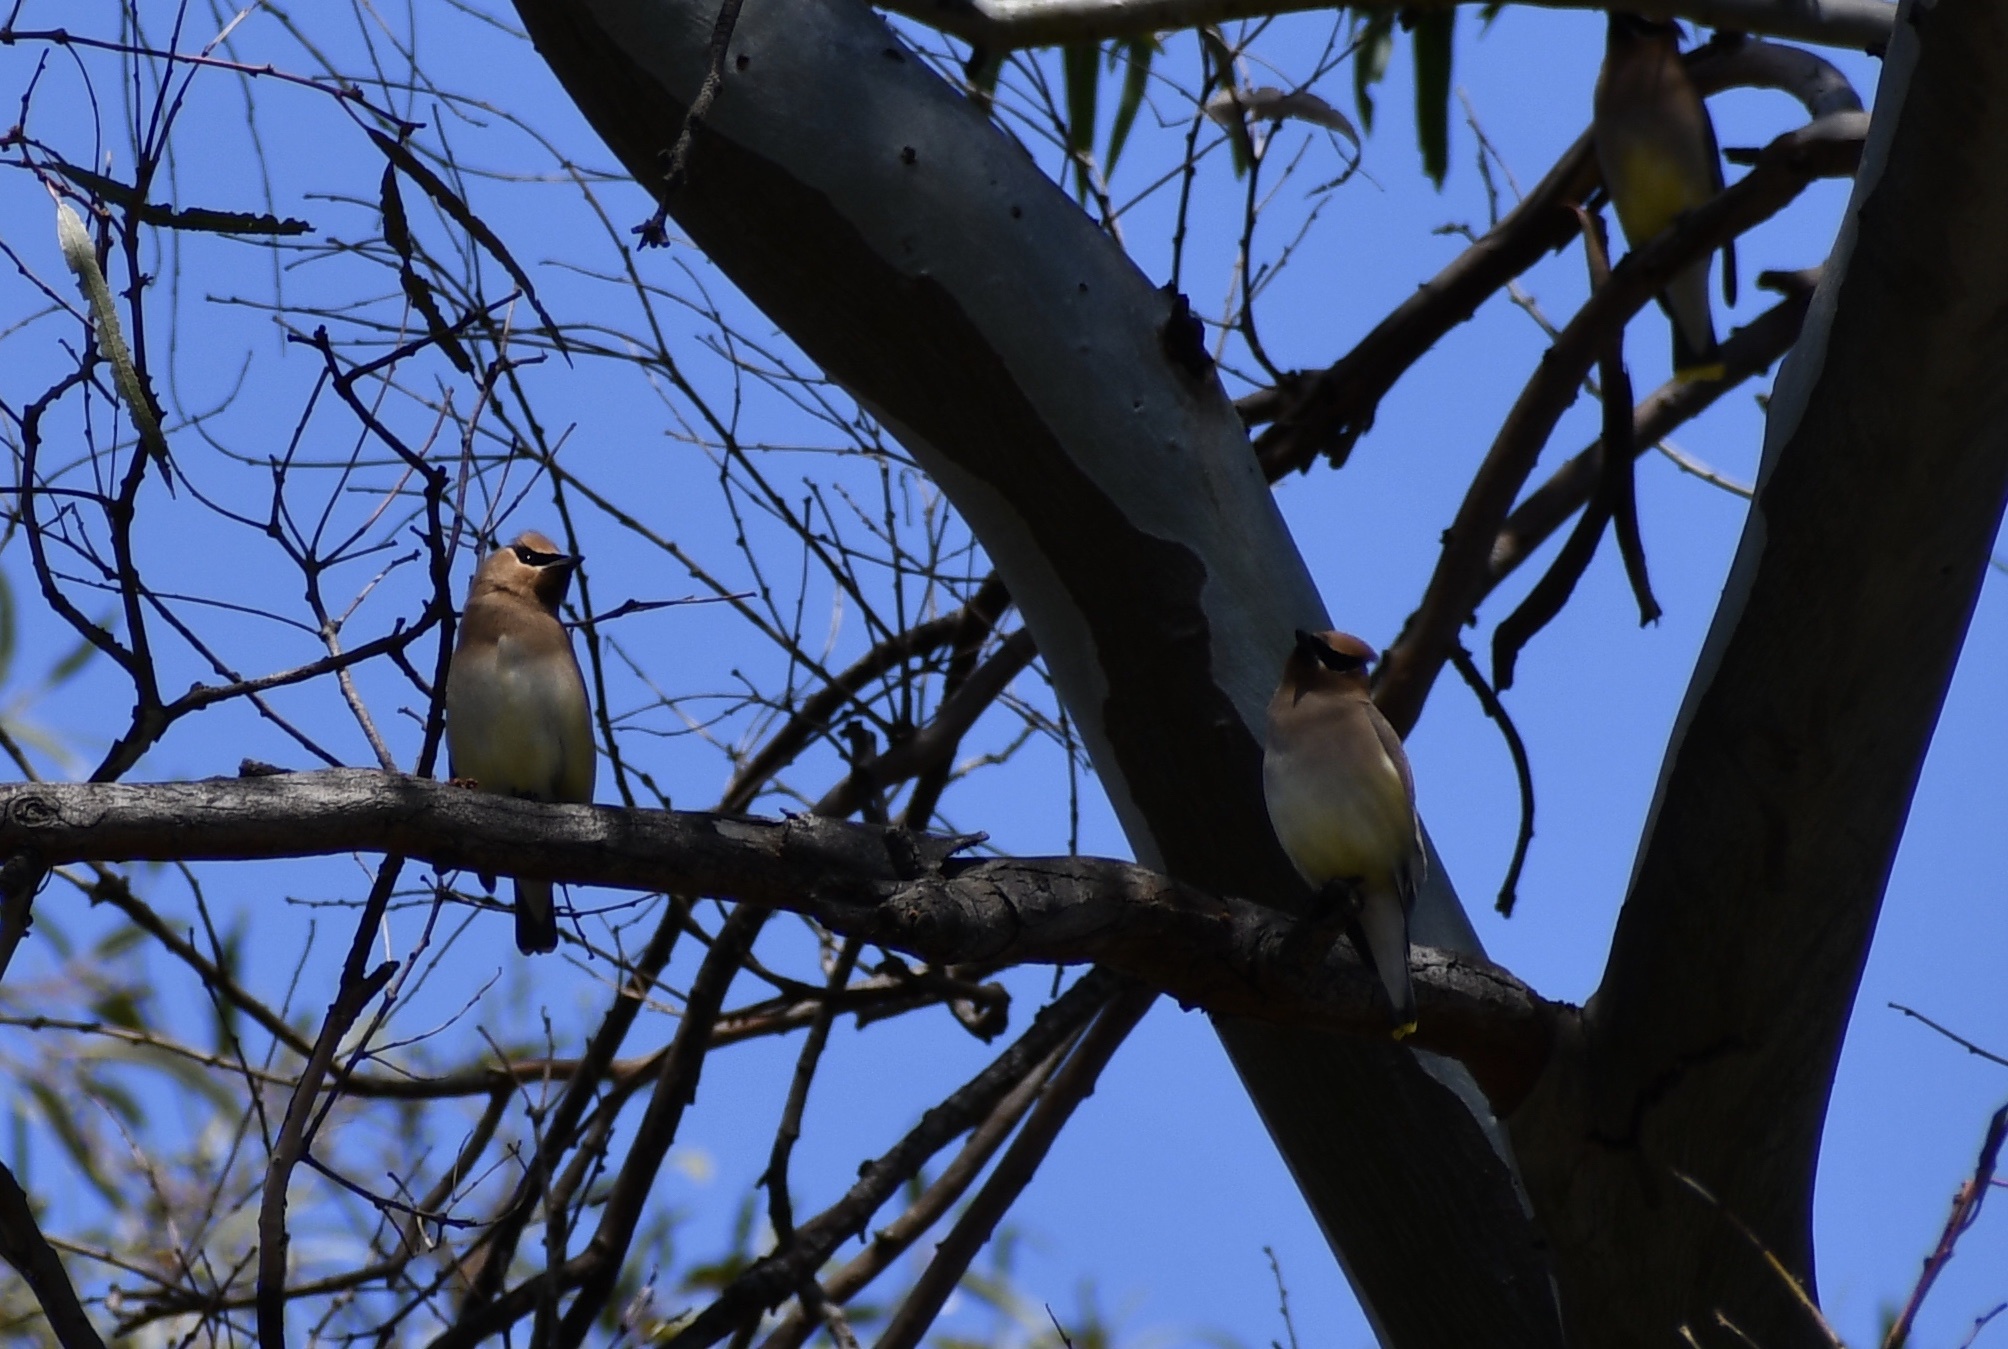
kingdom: Animalia
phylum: Chordata
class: Aves
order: Passeriformes
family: Bombycillidae
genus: Bombycilla
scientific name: Bombycilla cedrorum
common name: Cedar waxwing
